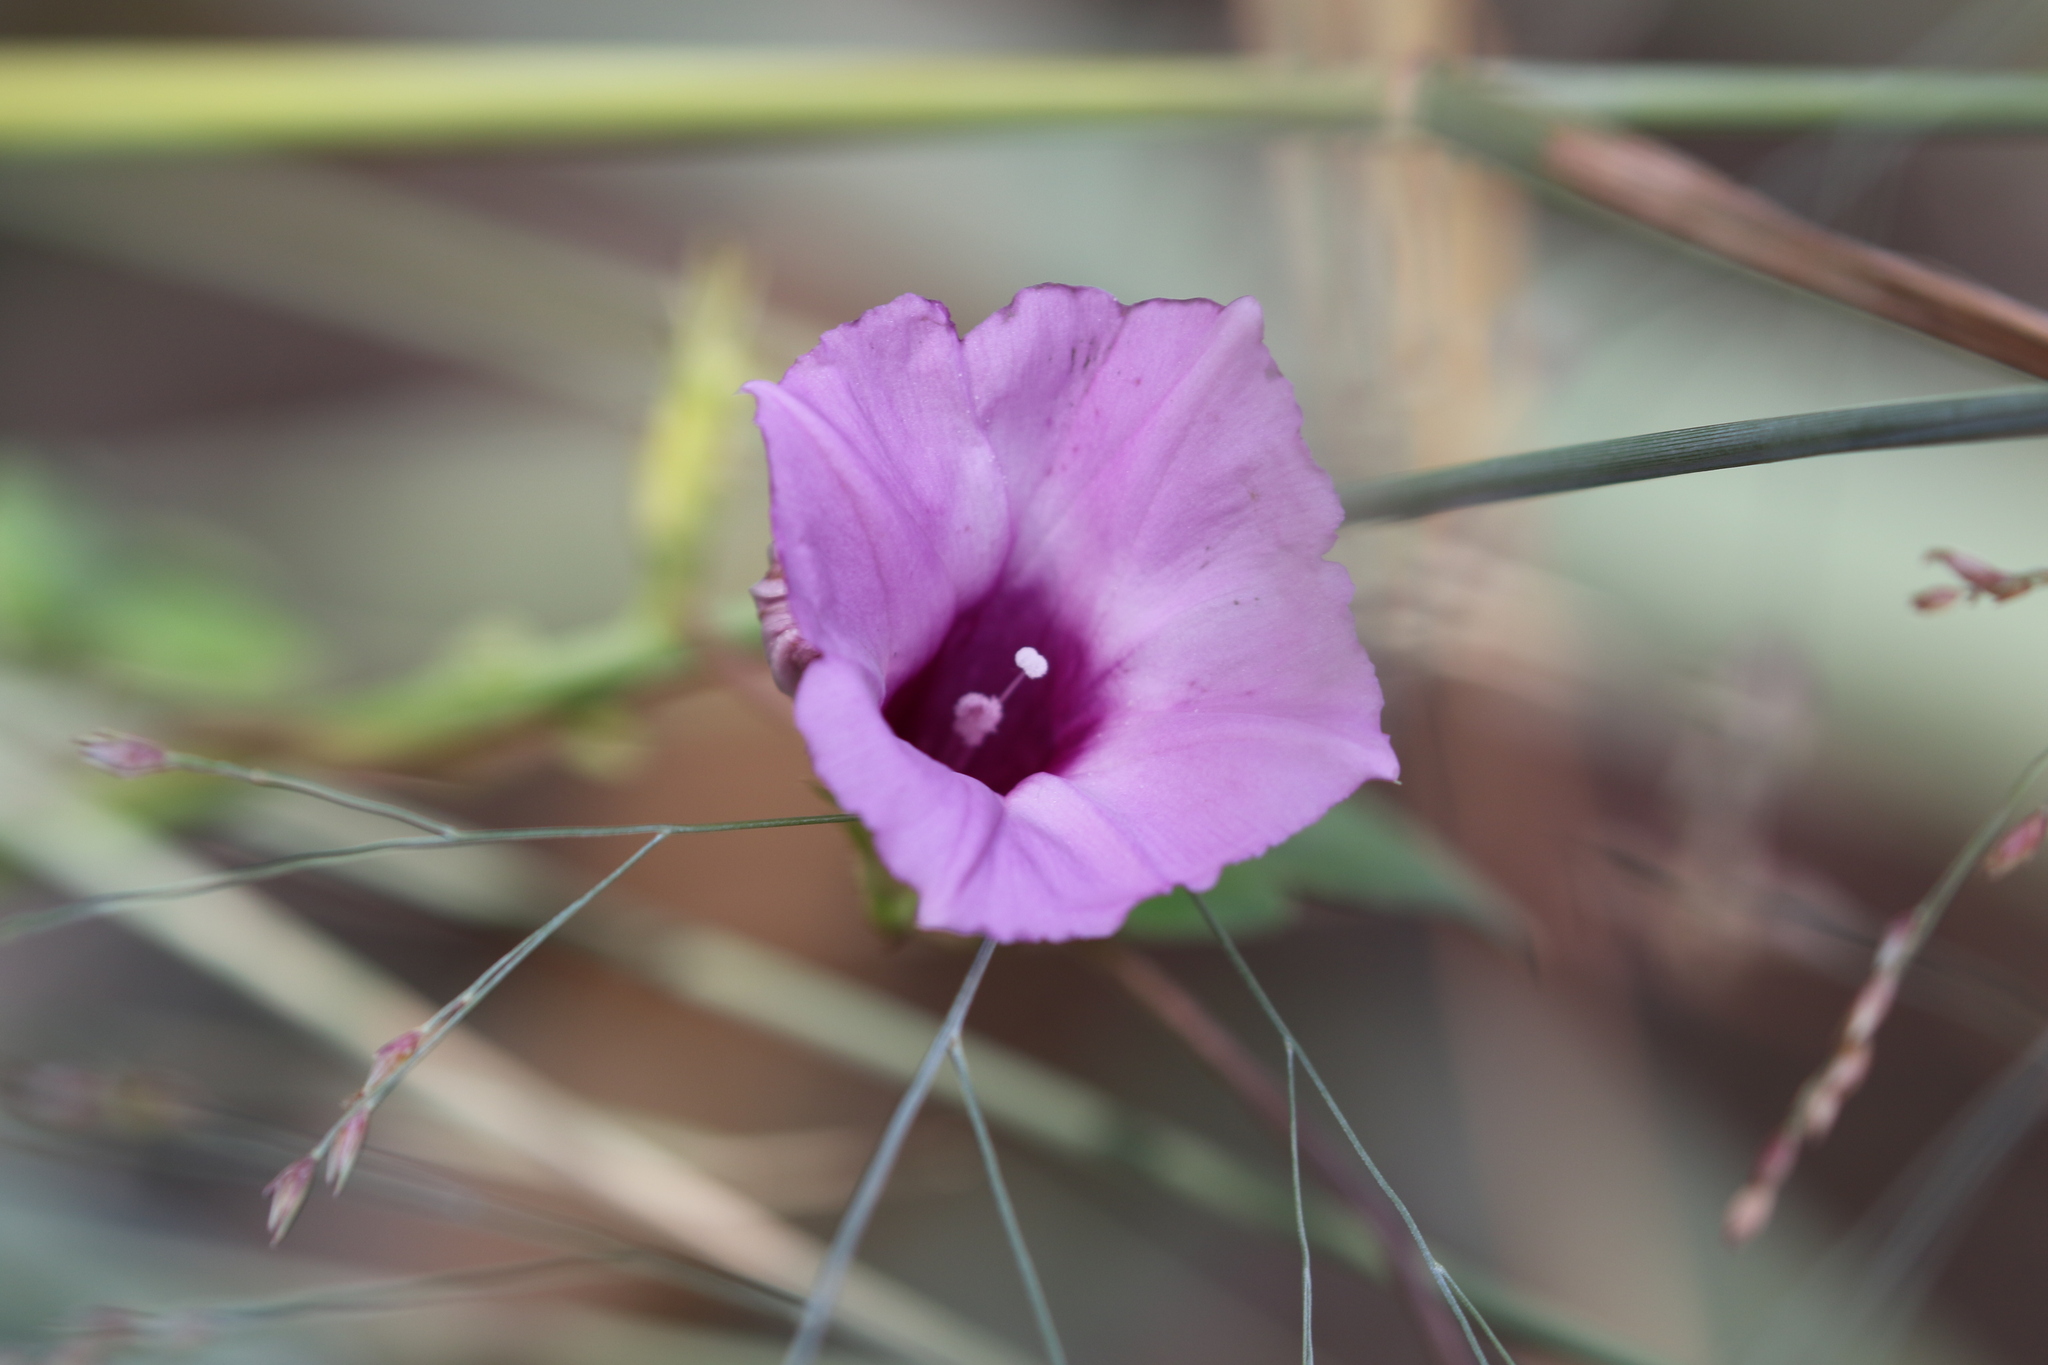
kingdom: Plantae
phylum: Tracheophyta
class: Magnoliopsida
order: Solanales
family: Convolvulaceae
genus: Ipomoea
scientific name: Ipomoea cordatotriloba
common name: Cotton morning glory
